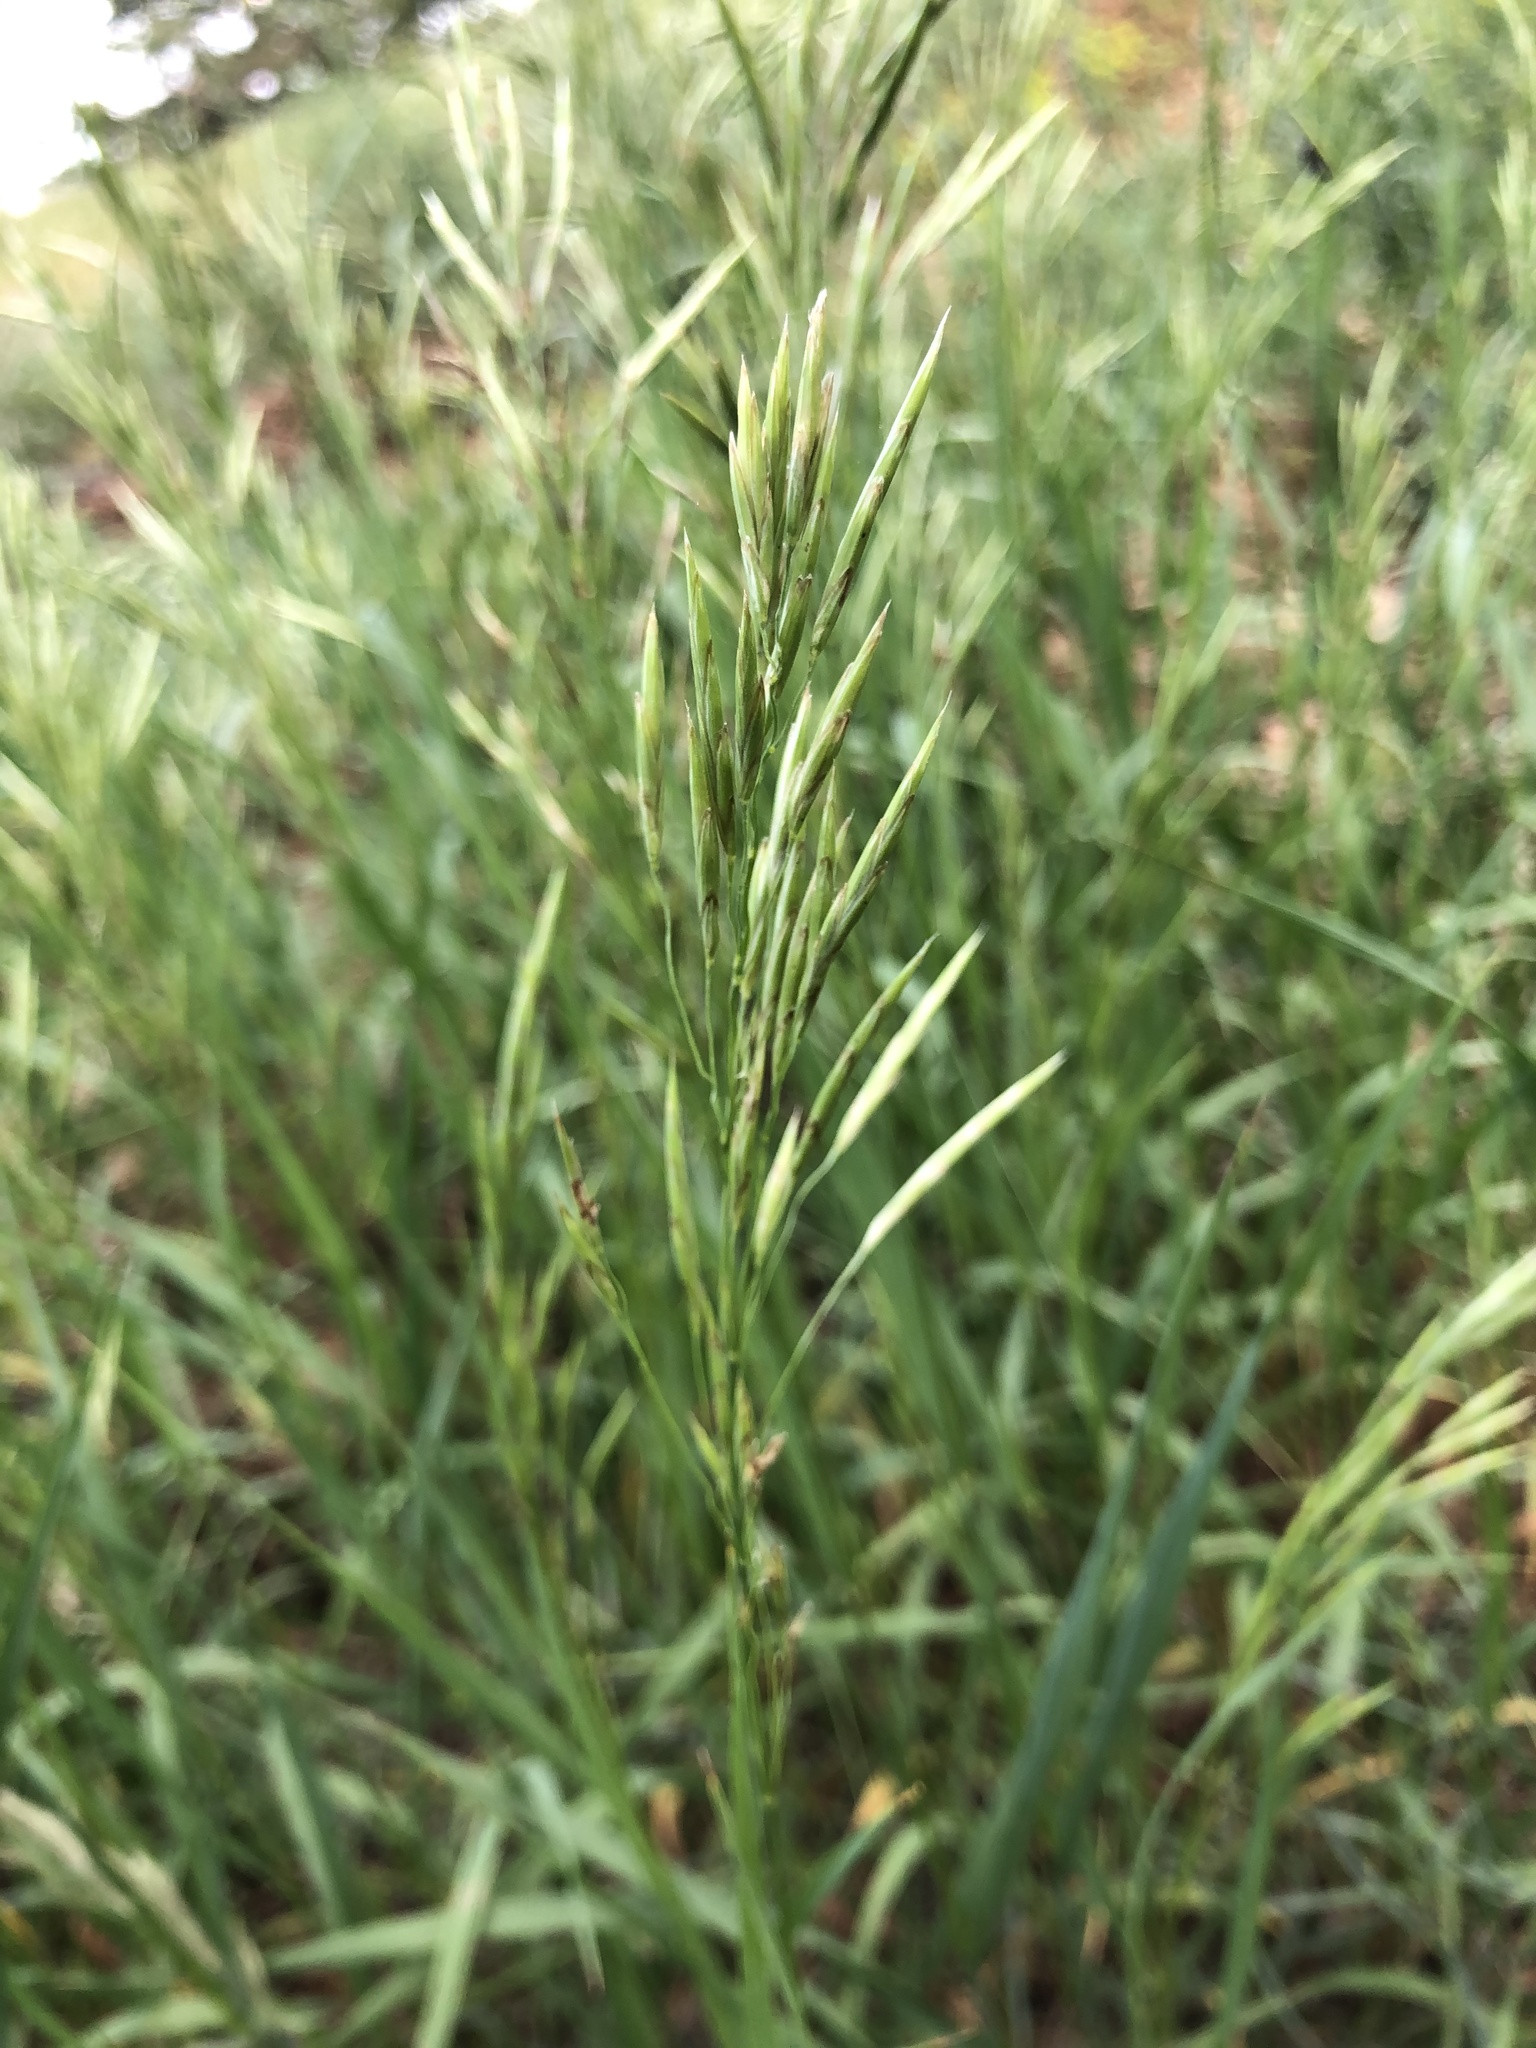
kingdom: Plantae
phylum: Tracheophyta
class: Liliopsida
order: Poales
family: Poaceae
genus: Bromus
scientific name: Bromus inermis
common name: Smooth brome
